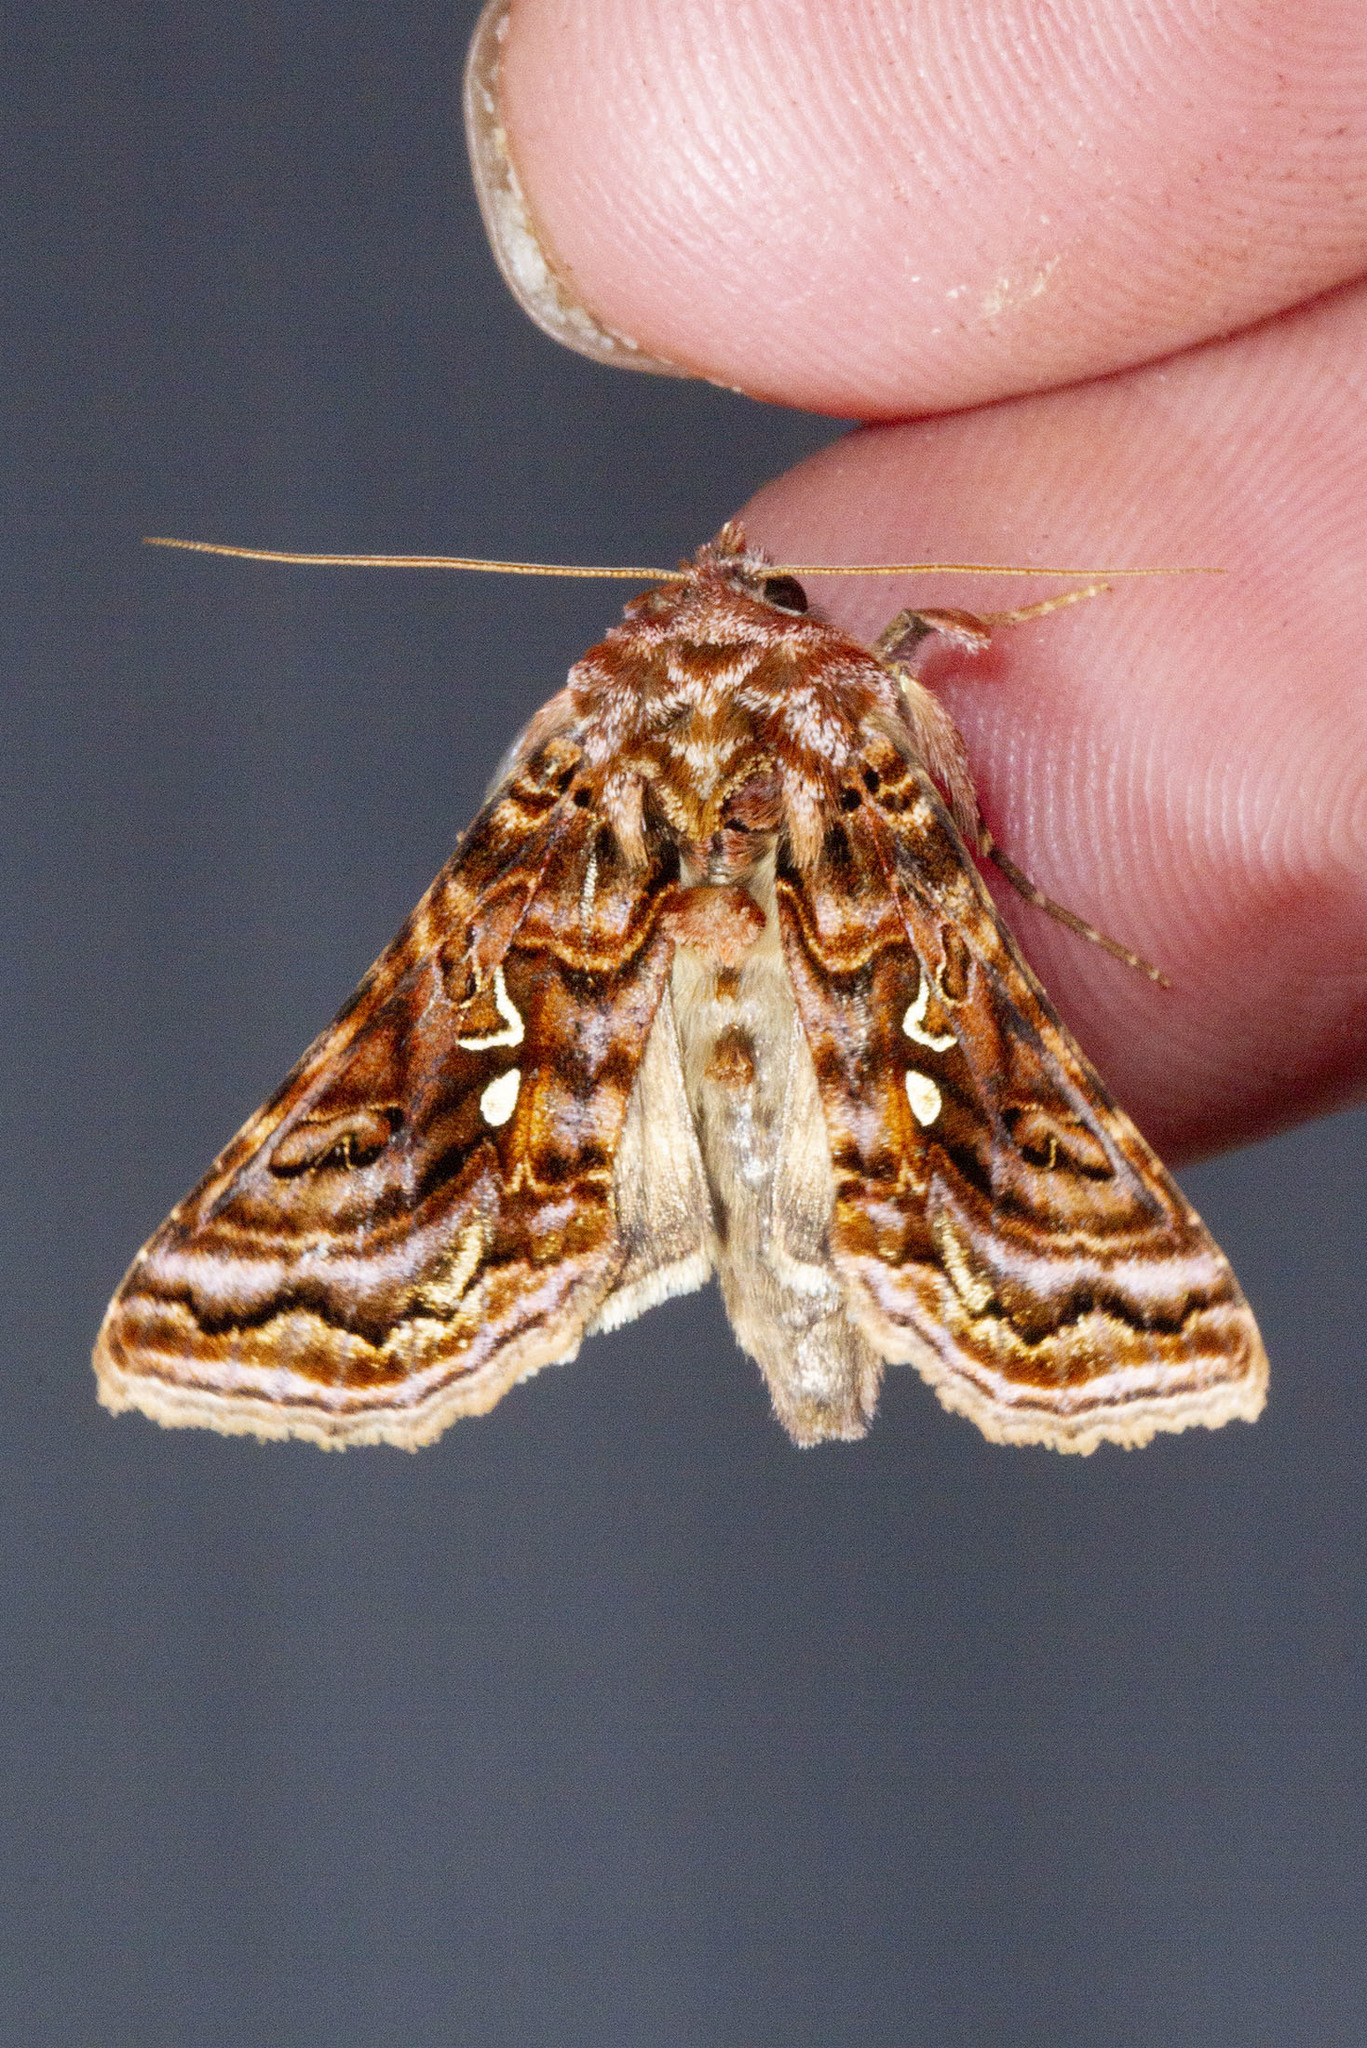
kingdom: Animalia
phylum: Arthropoda
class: Insecta
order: Lepidoptera
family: Noctuidae
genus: Autographa
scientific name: Autographa mappa
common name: Wavy chestnut y moth
